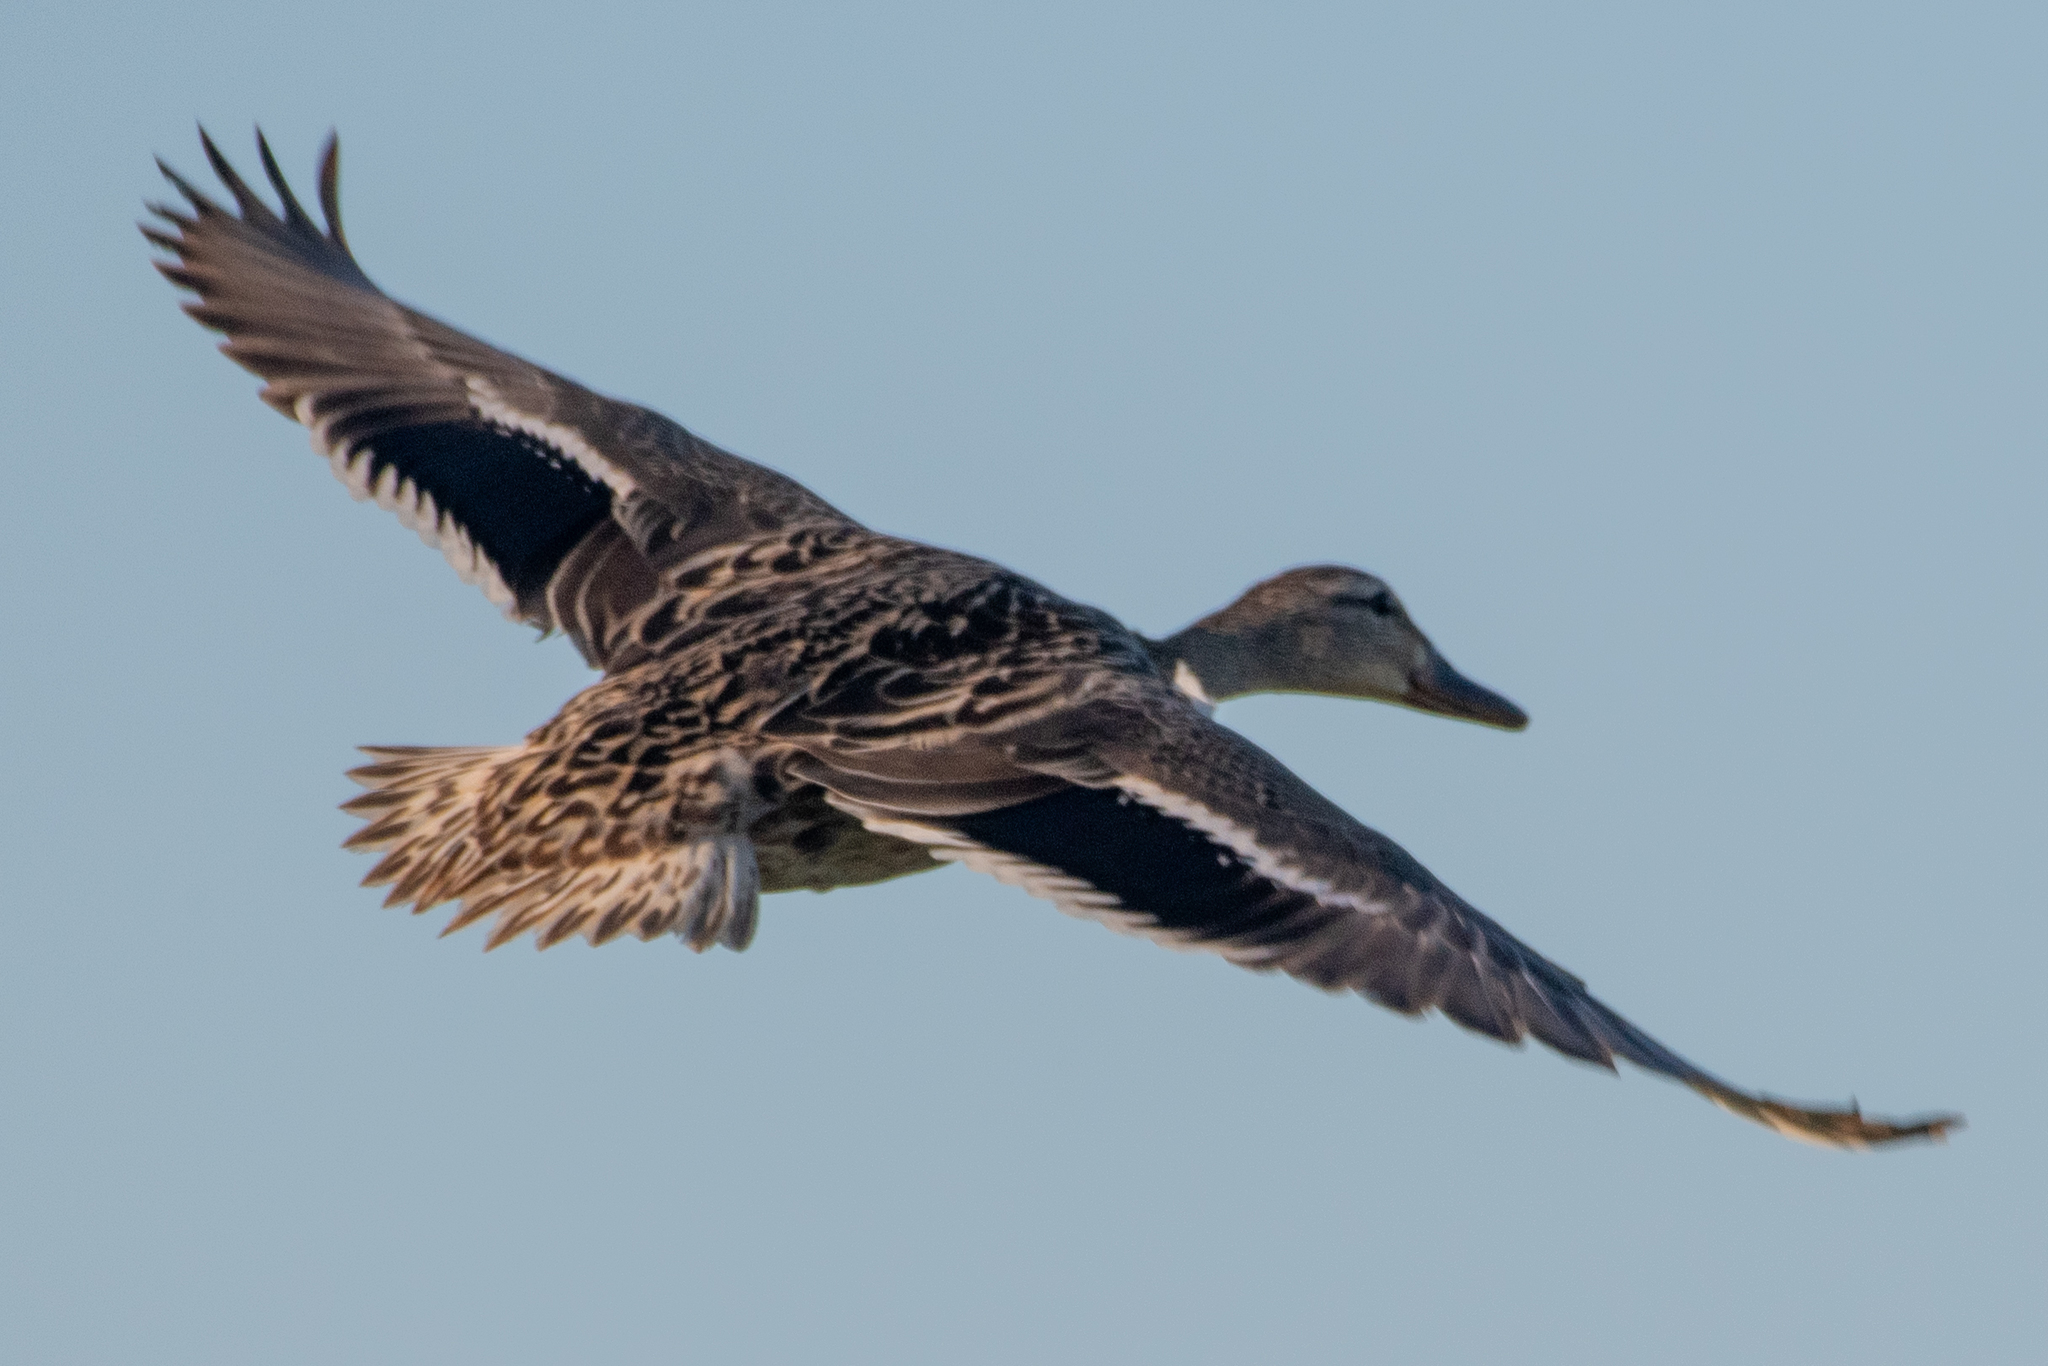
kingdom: Animalia
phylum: Chordata
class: Aves
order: Anseriformes
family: Anatidae
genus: Anas
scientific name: Anas platyrhynchos
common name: Mallard
